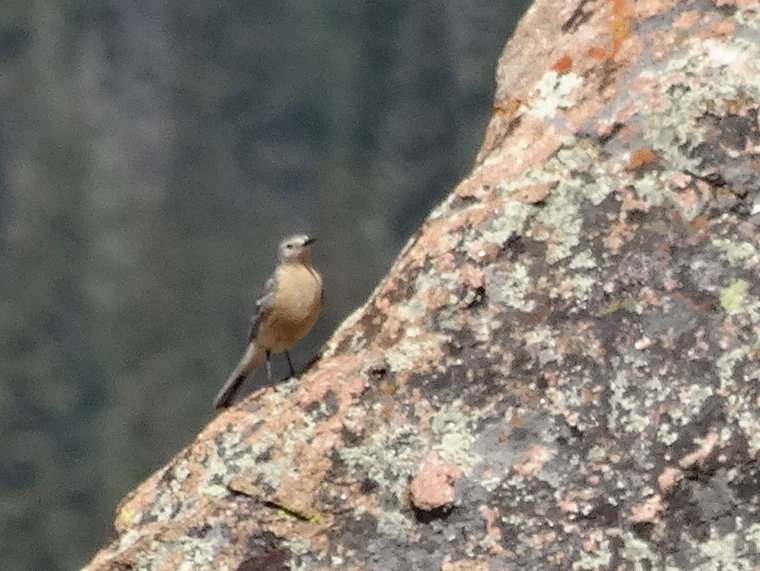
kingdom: Animalia
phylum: Chordata
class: Aves
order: Passeriformes
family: Motacillidae
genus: Anthus
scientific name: Anthus rubescens
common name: Buff-bellied pipit
